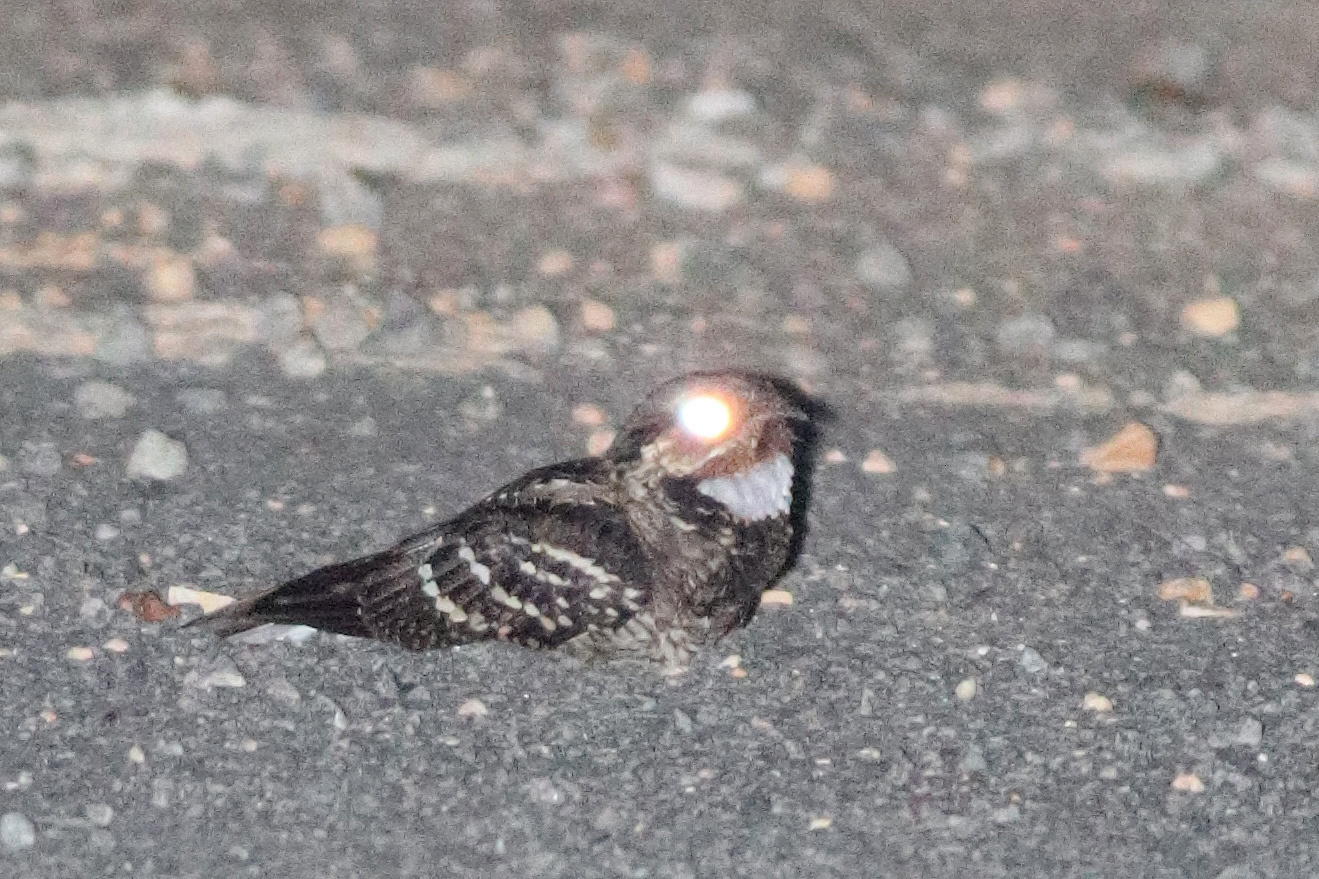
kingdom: Animalia
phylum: Chordata
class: Aves
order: Caprimulgiformes
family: Caprimulgidae
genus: Caprimulgus
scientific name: Caprimulgus macrurus
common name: Large-tailed nightjar
